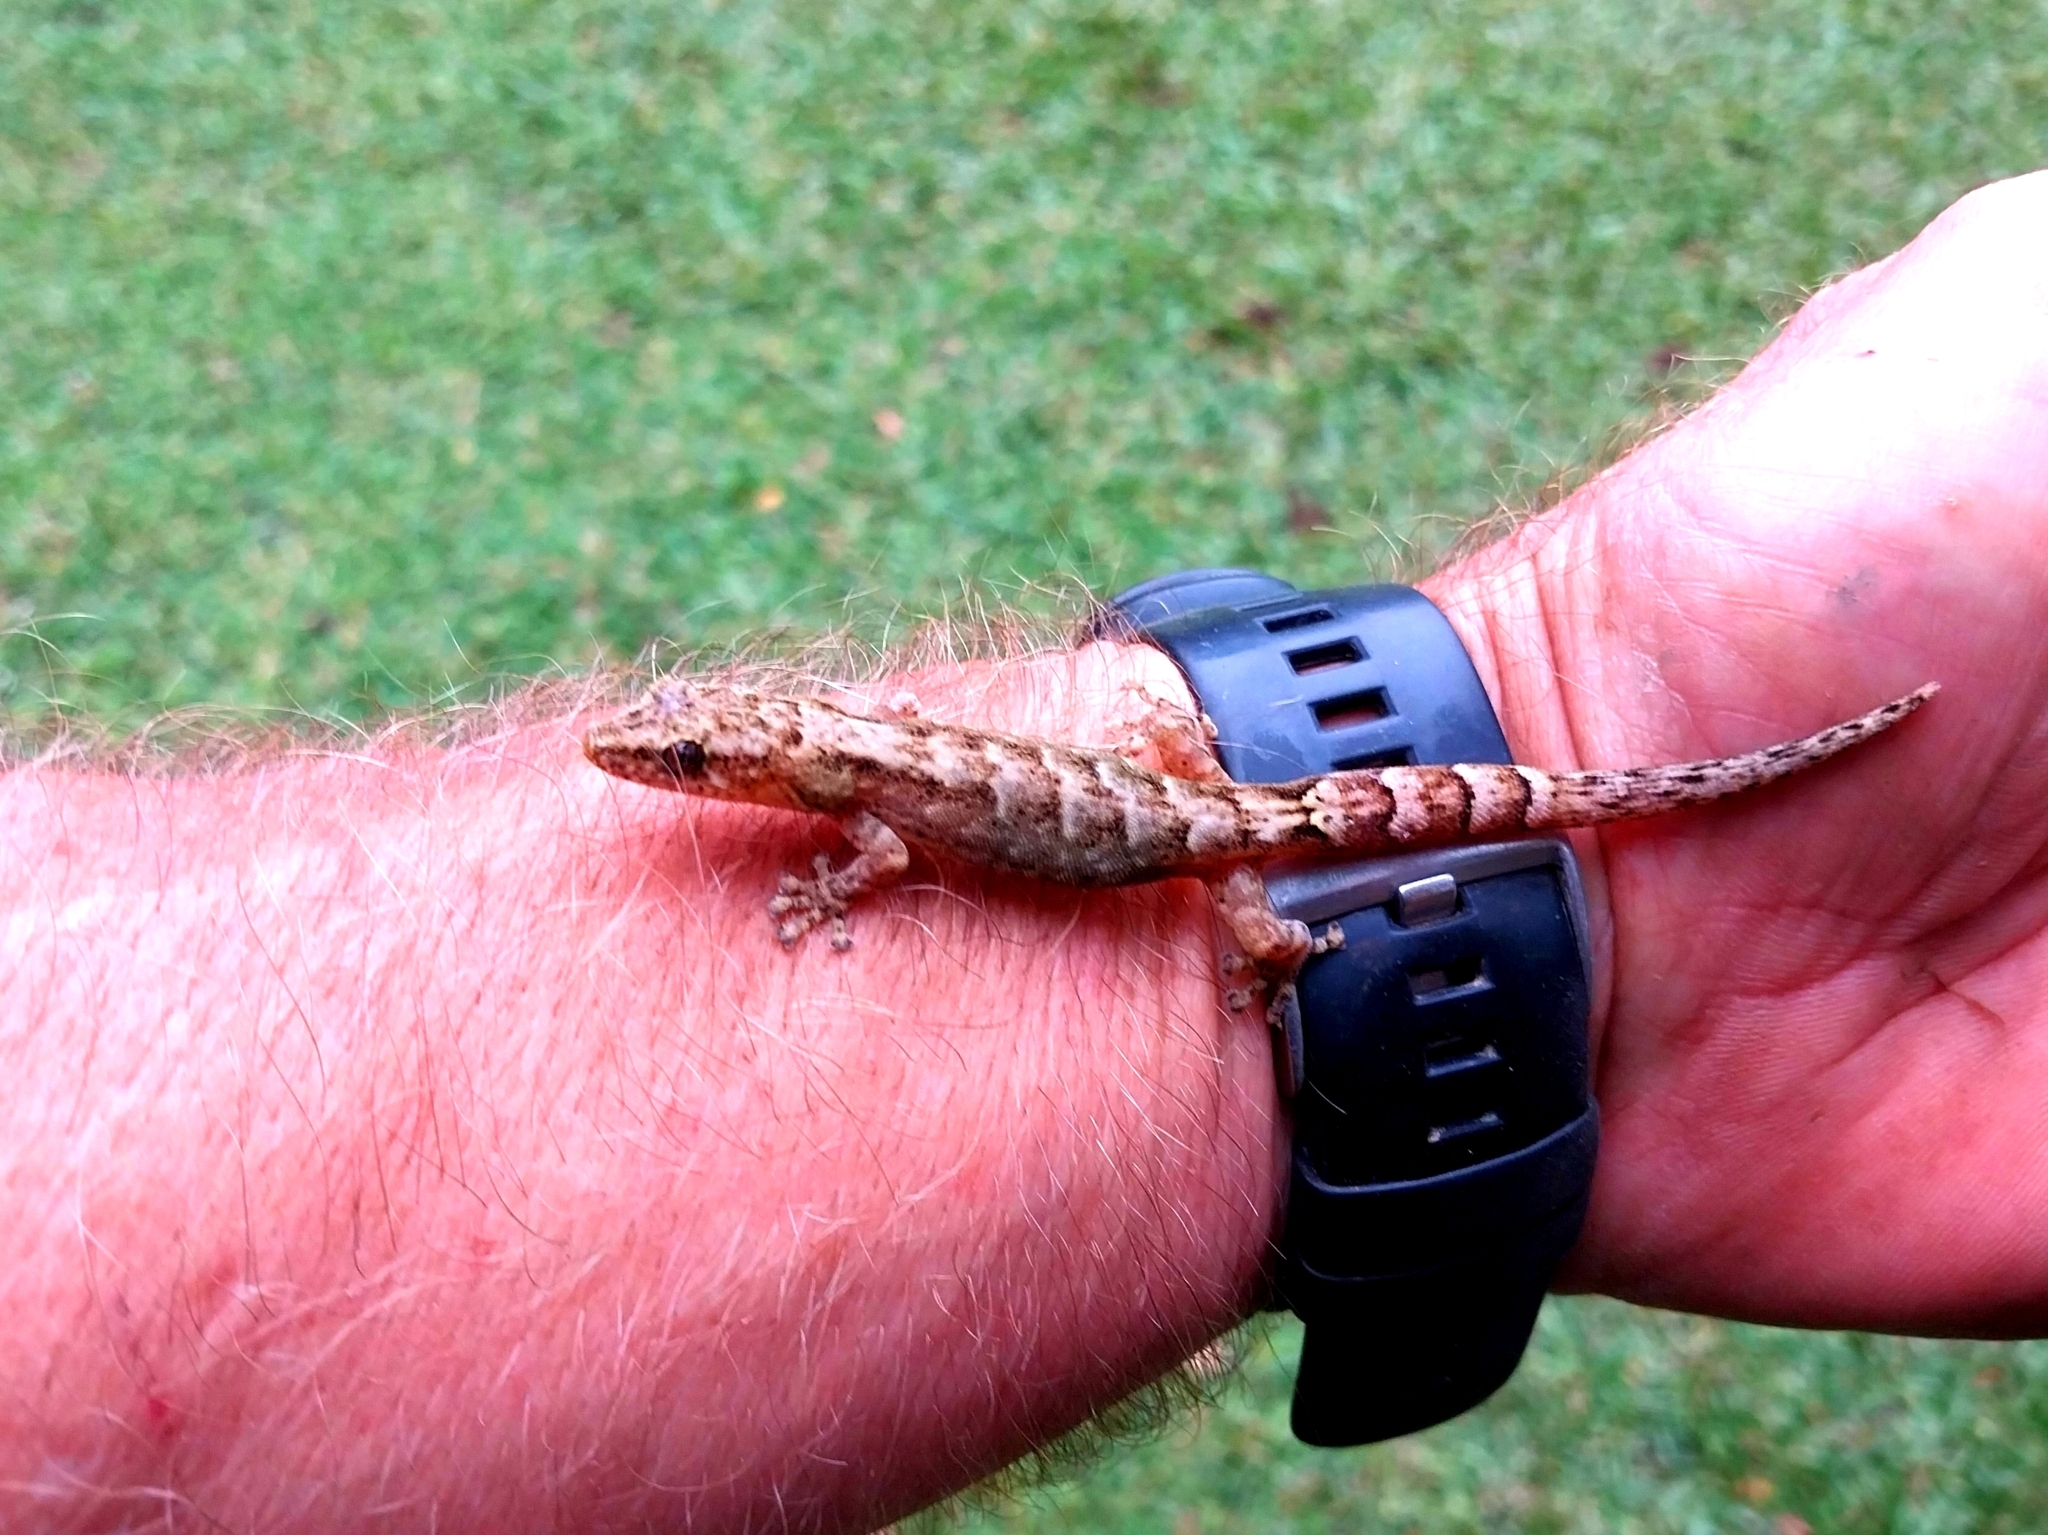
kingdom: Animalia
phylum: Chordata
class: Squamata
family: Gekkonidae
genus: Afrogecko
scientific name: Afrogecko porphyreus
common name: Marbled leaf-toed gecko
